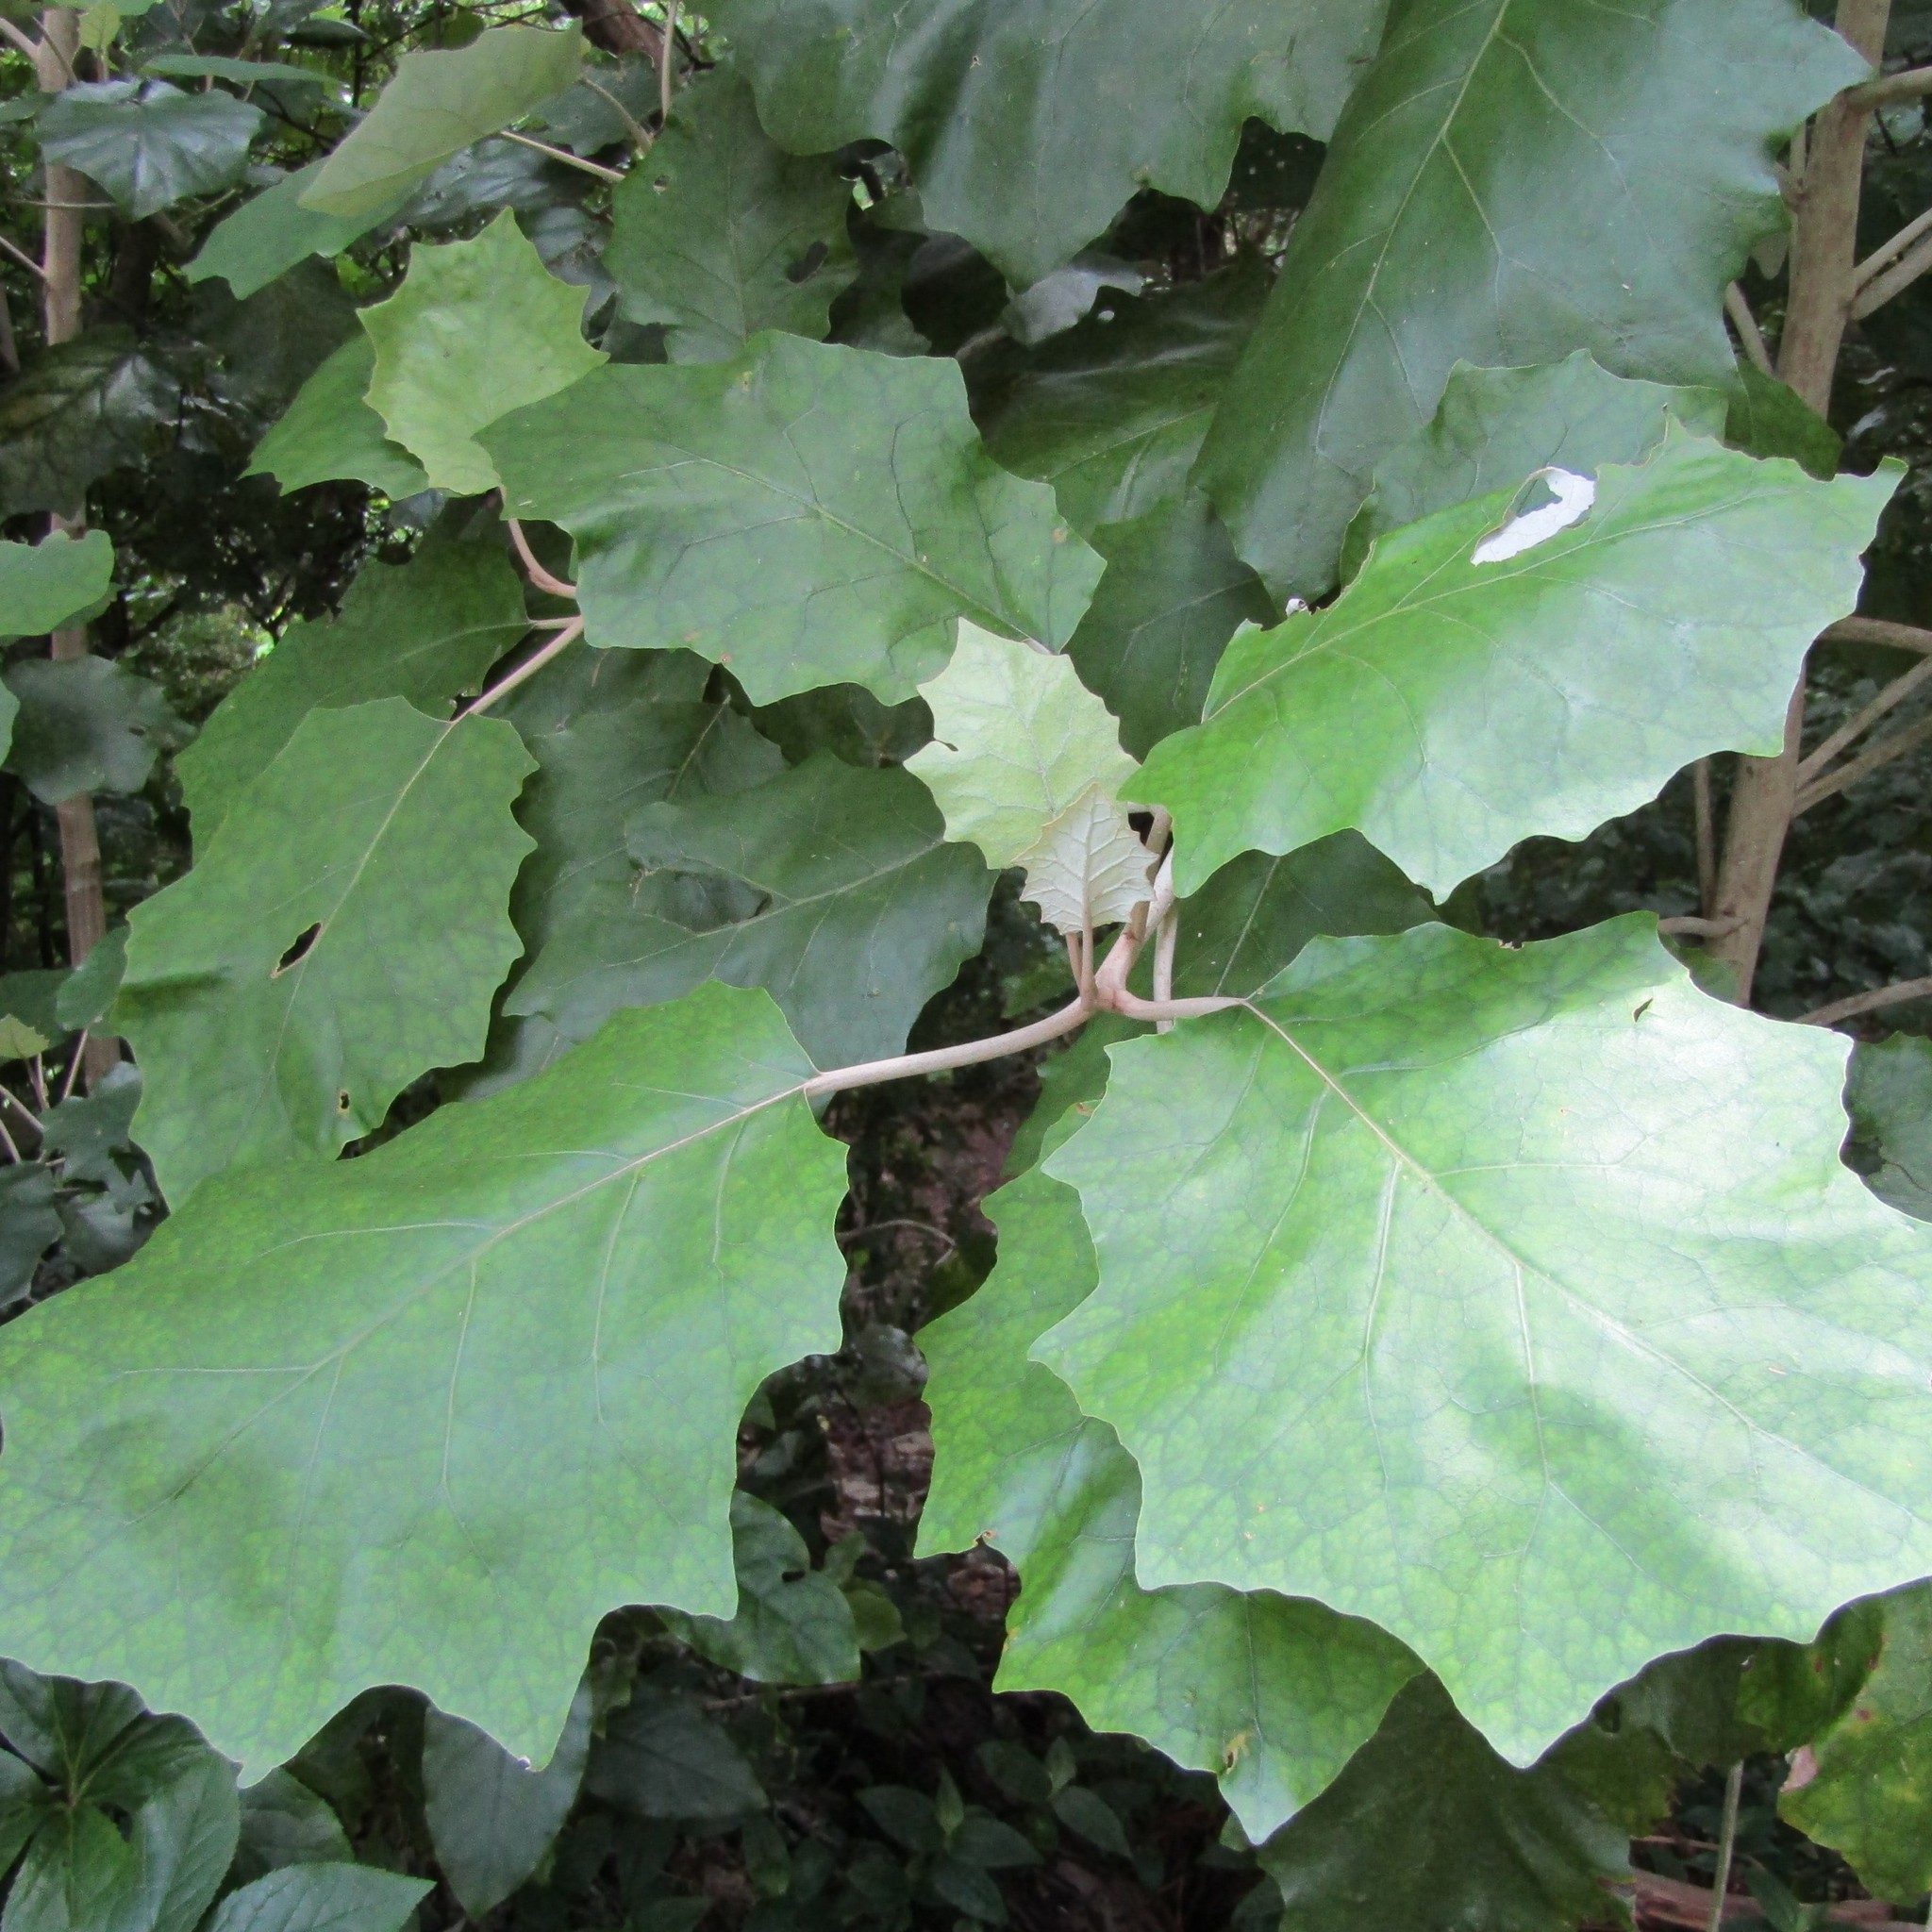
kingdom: Plantae
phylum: Tracheophyta
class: Magnoliopsida
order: Asterales
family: Asteraceae
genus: Brachyglottis
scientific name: Brachyglottis repanda
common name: Hedge ragwort
